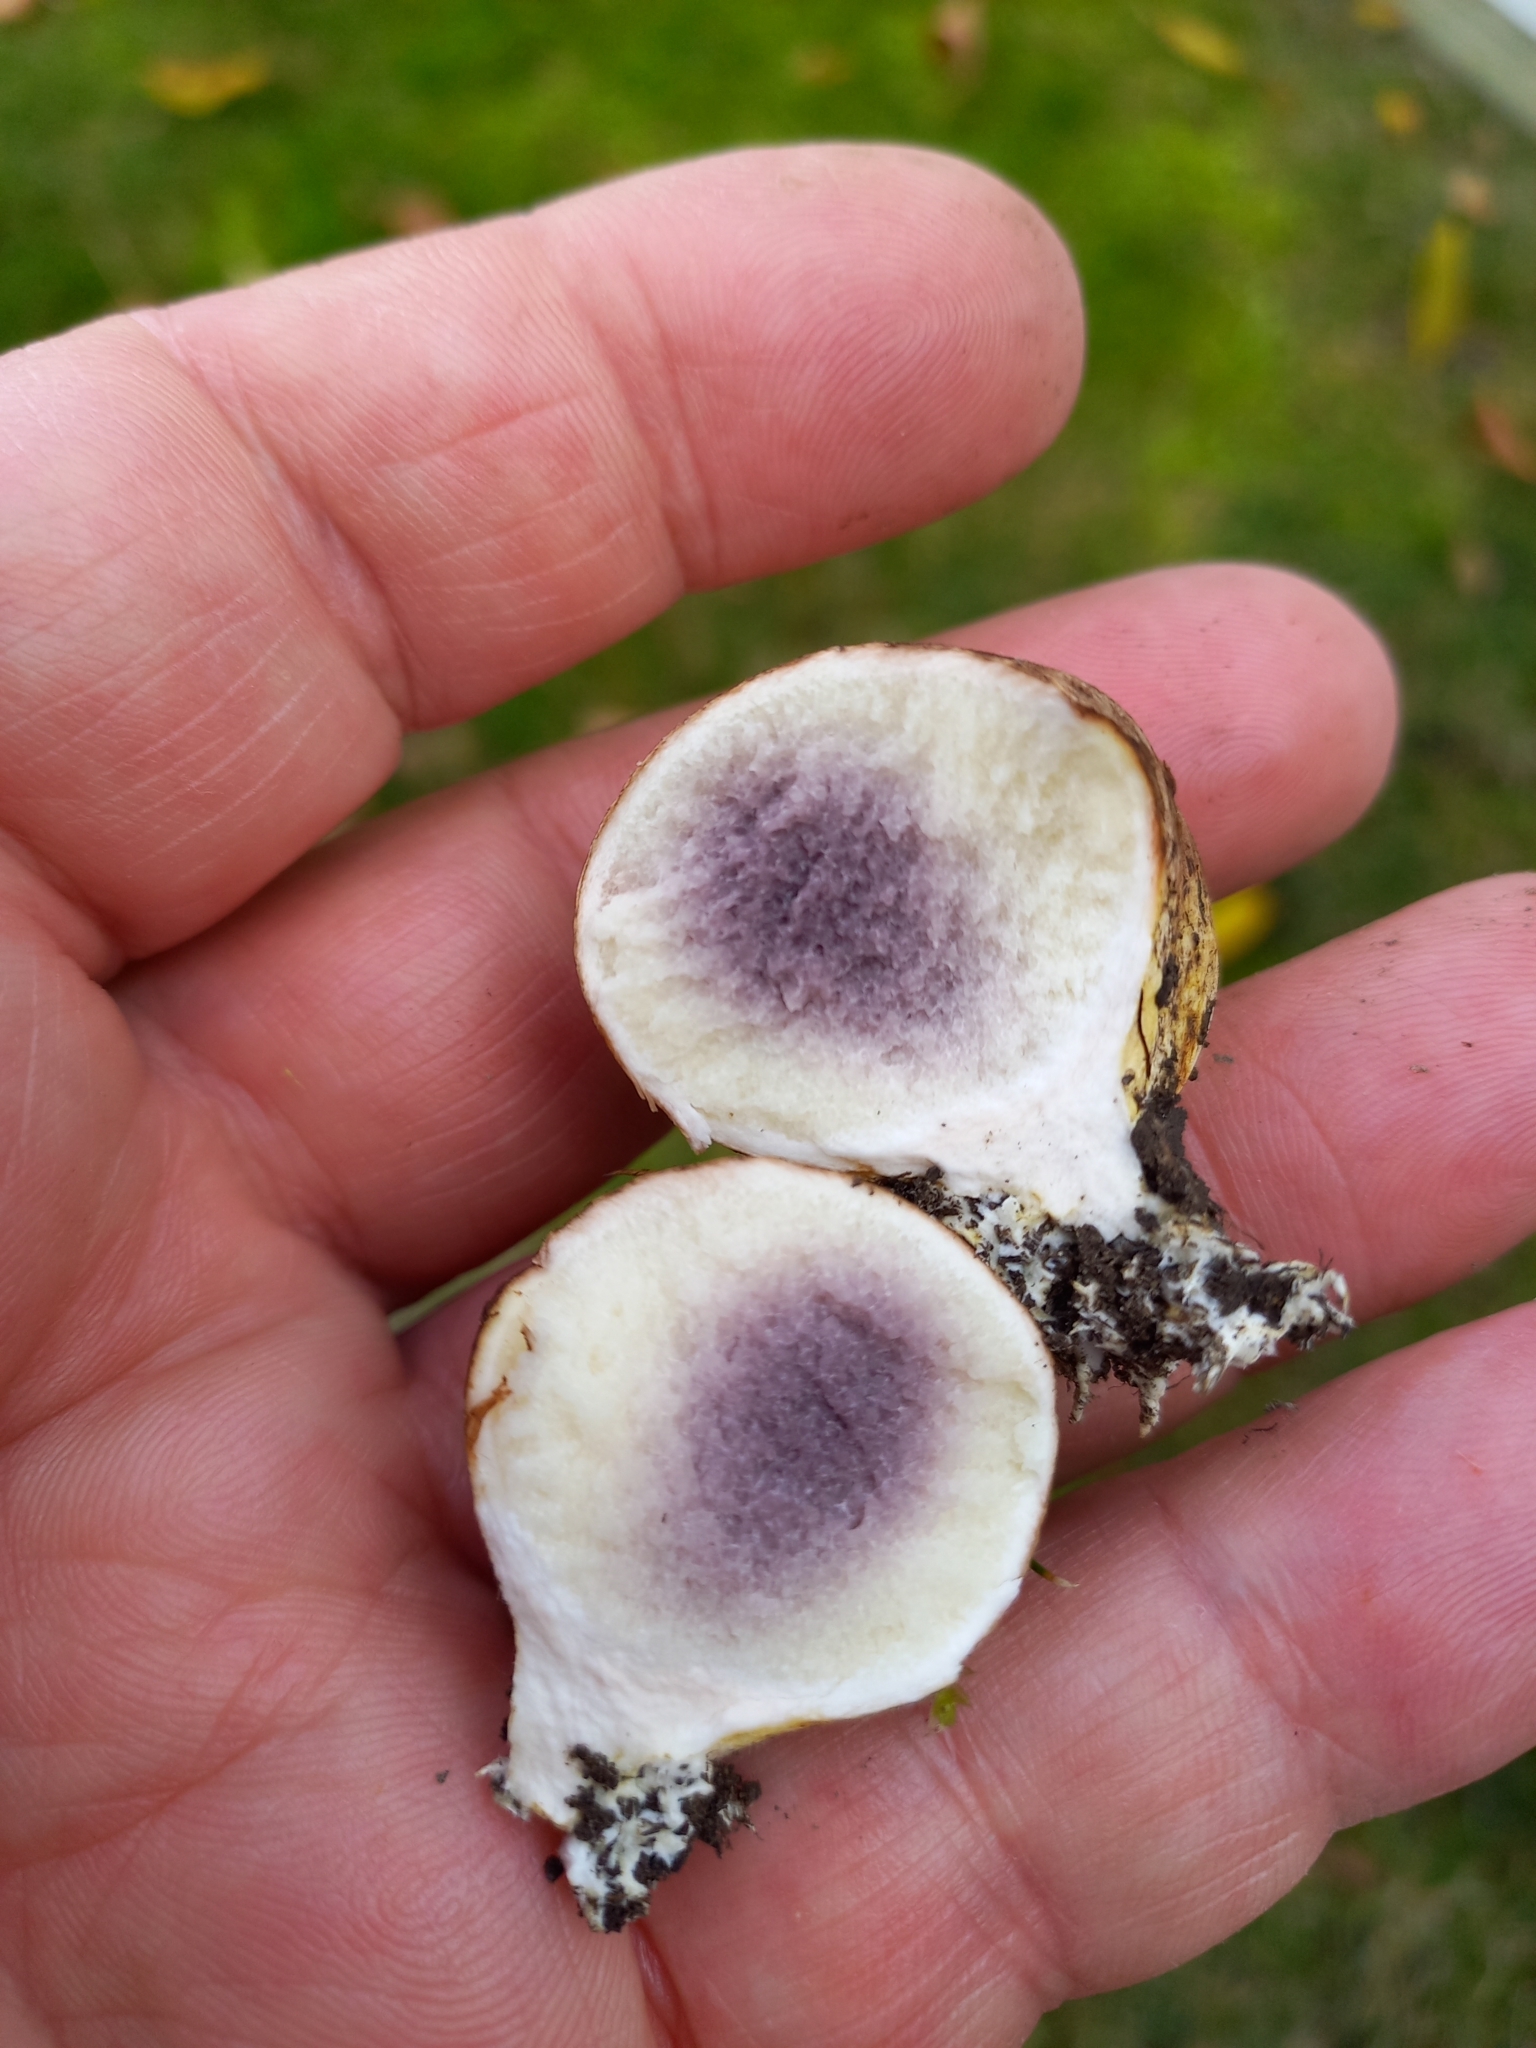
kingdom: Fungi
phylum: Basidiomycota
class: Agaricomycetes
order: Boletales
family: Sclerodermataceae
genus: Scleroderma
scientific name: Scleroderma bovista
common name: Potato earthball
